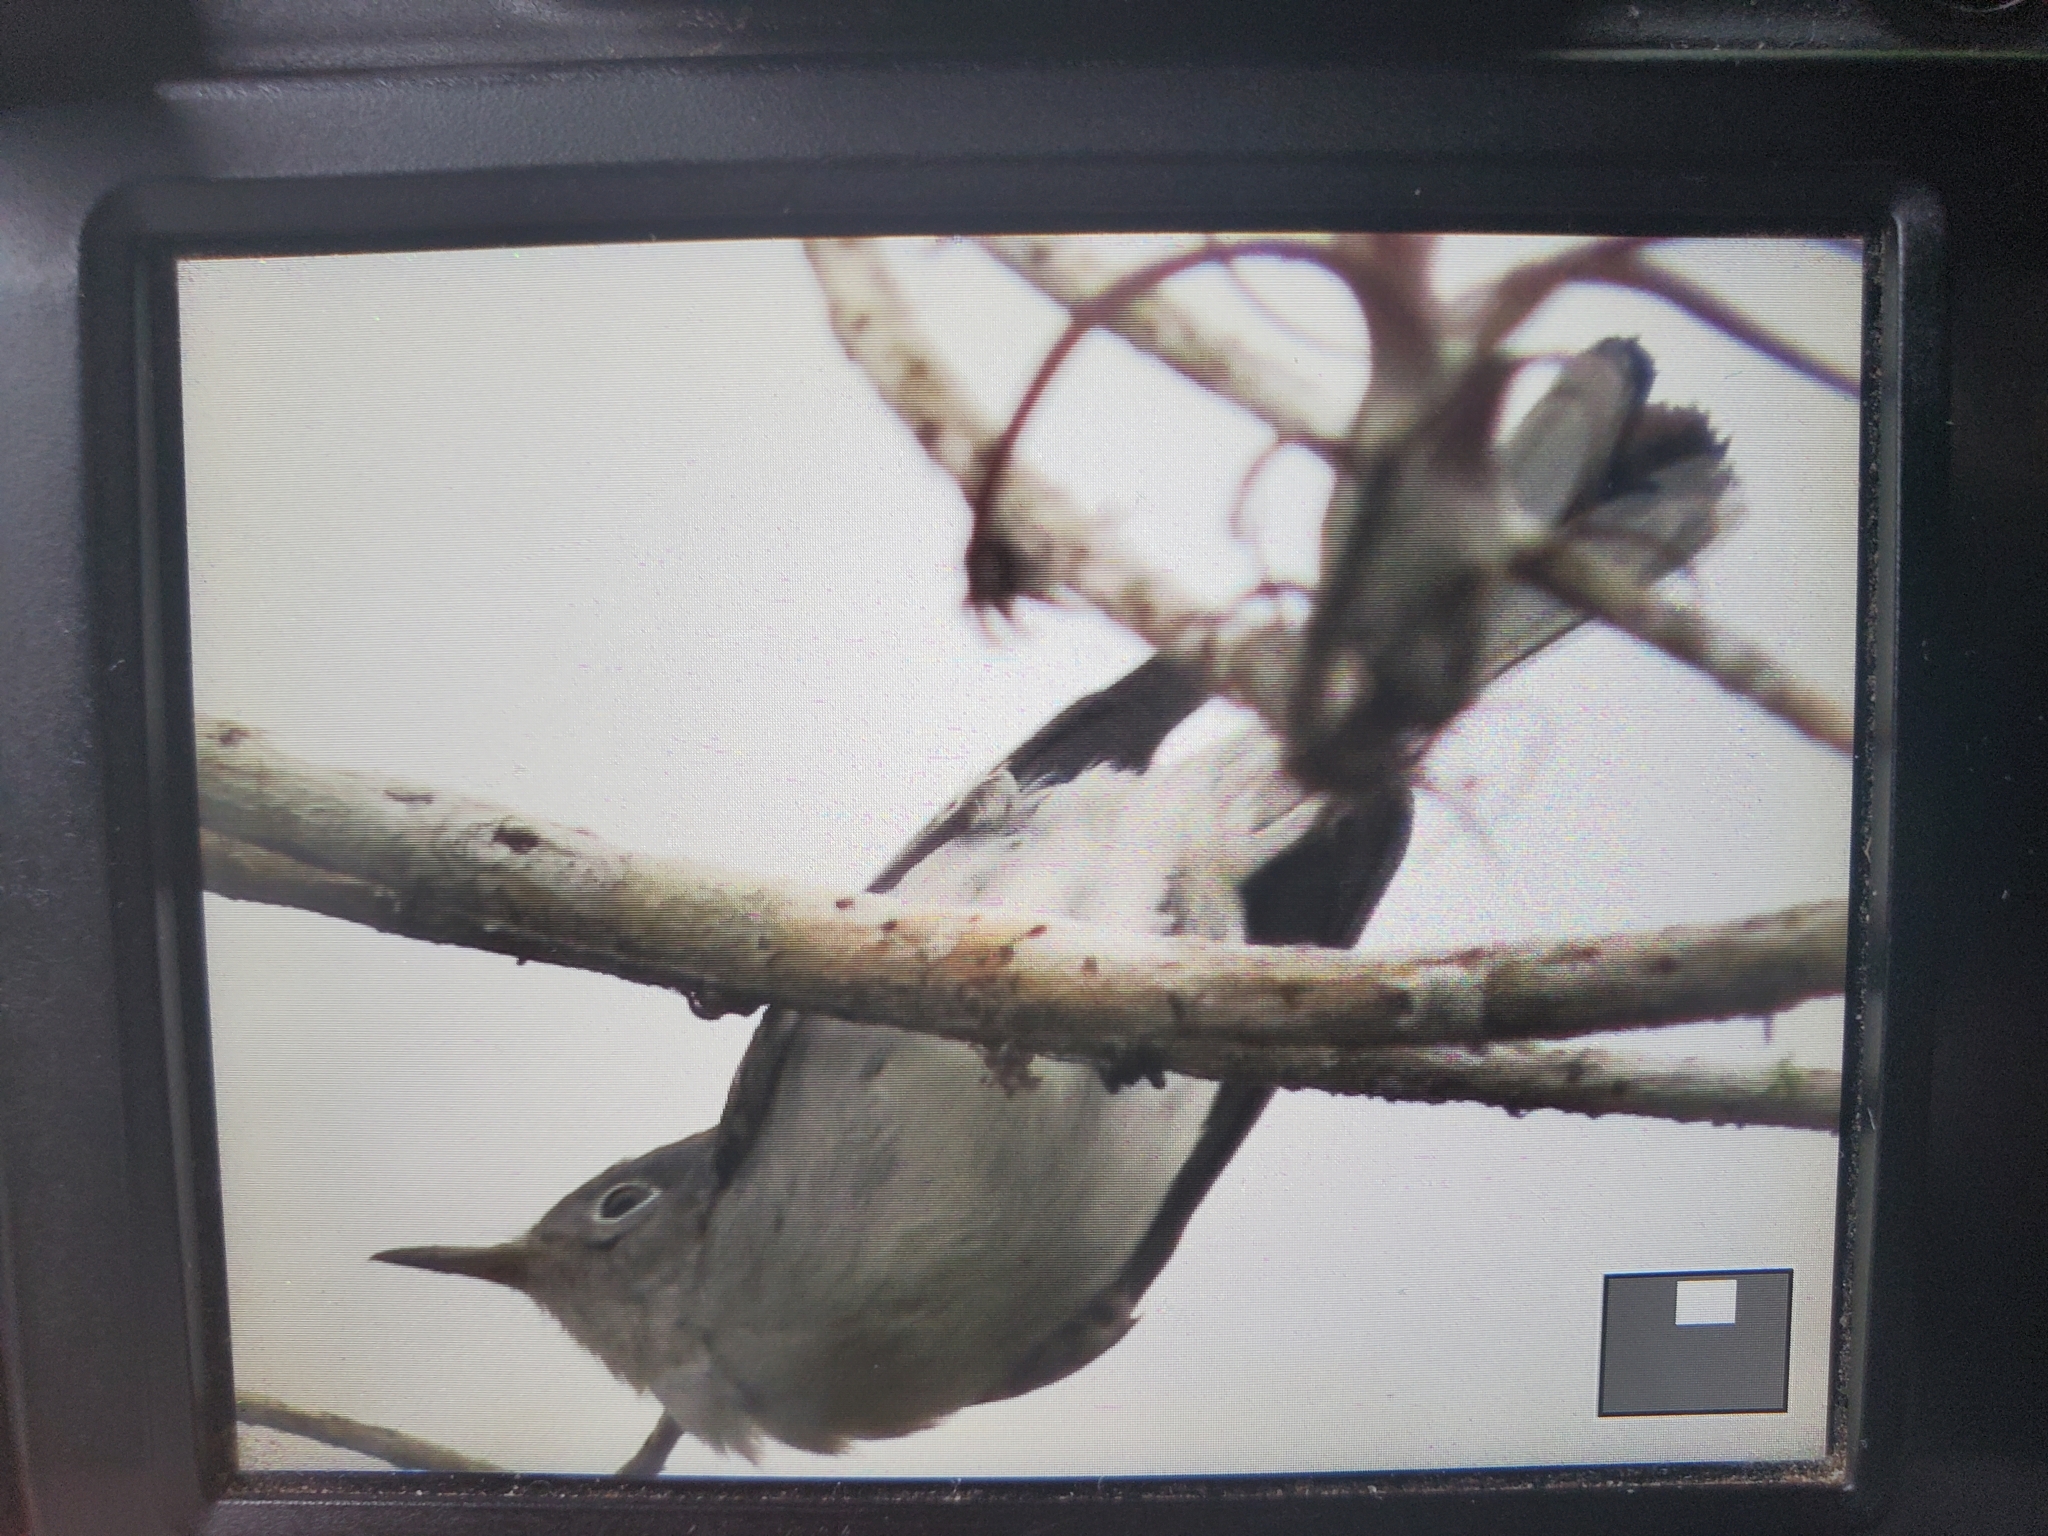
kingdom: Animalia
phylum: Chordata
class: Aves
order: Passeriformes
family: Polioptilidae
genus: Polioptila
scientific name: Polioptila caerulea
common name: Blue-gray gnatcatcher
